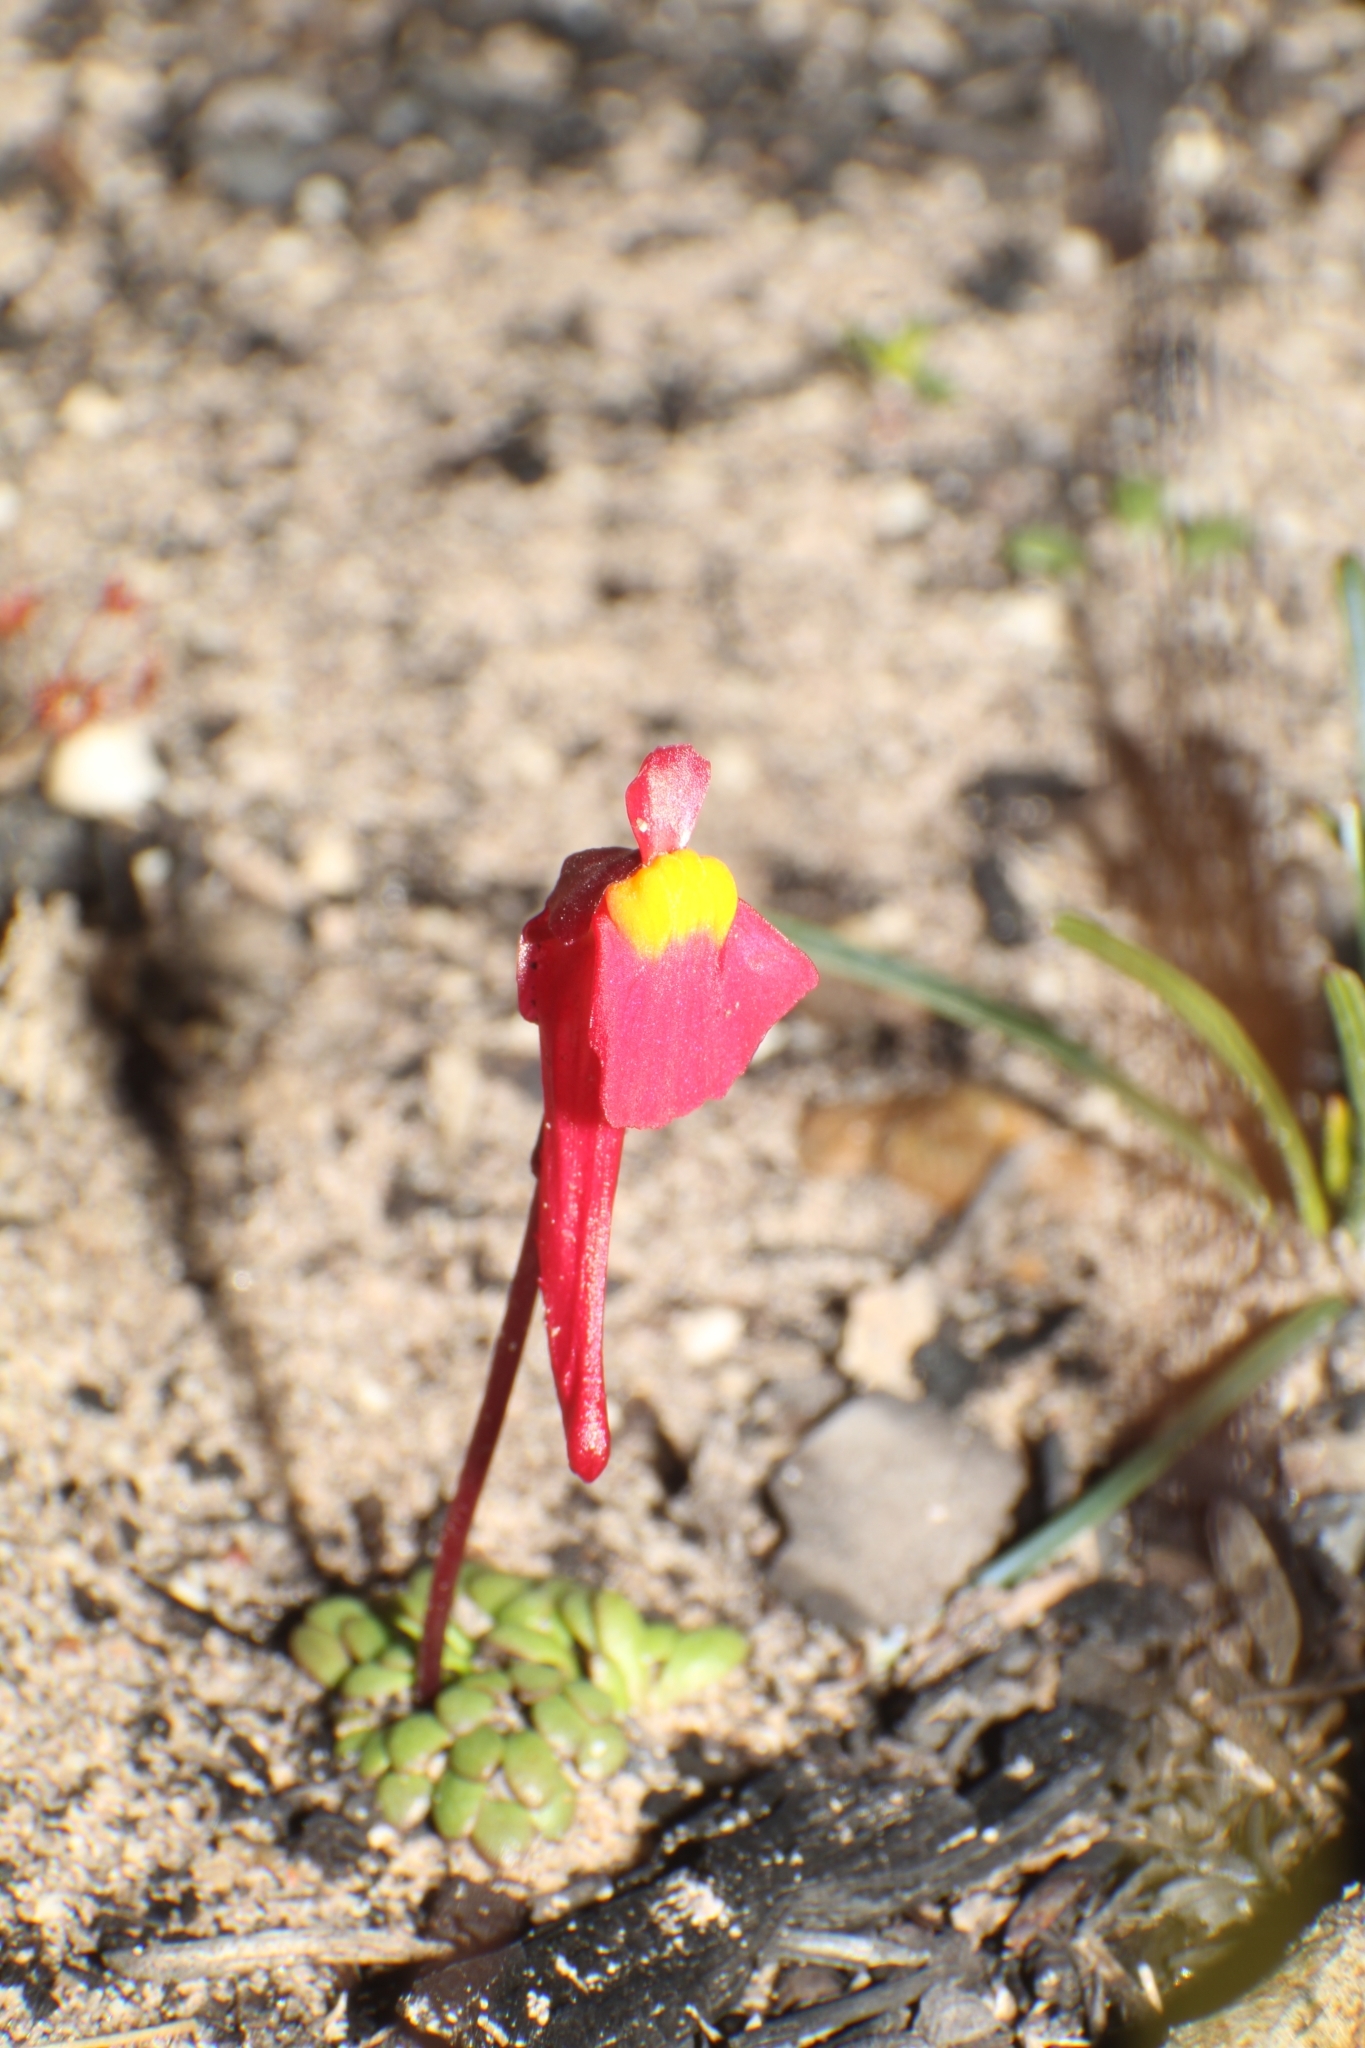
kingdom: Plantae
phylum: Tracheophyta
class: Magnoliopsida
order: Lamiales
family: Lentibulariaceae
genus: Utricularia
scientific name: Utricularia menziesii
